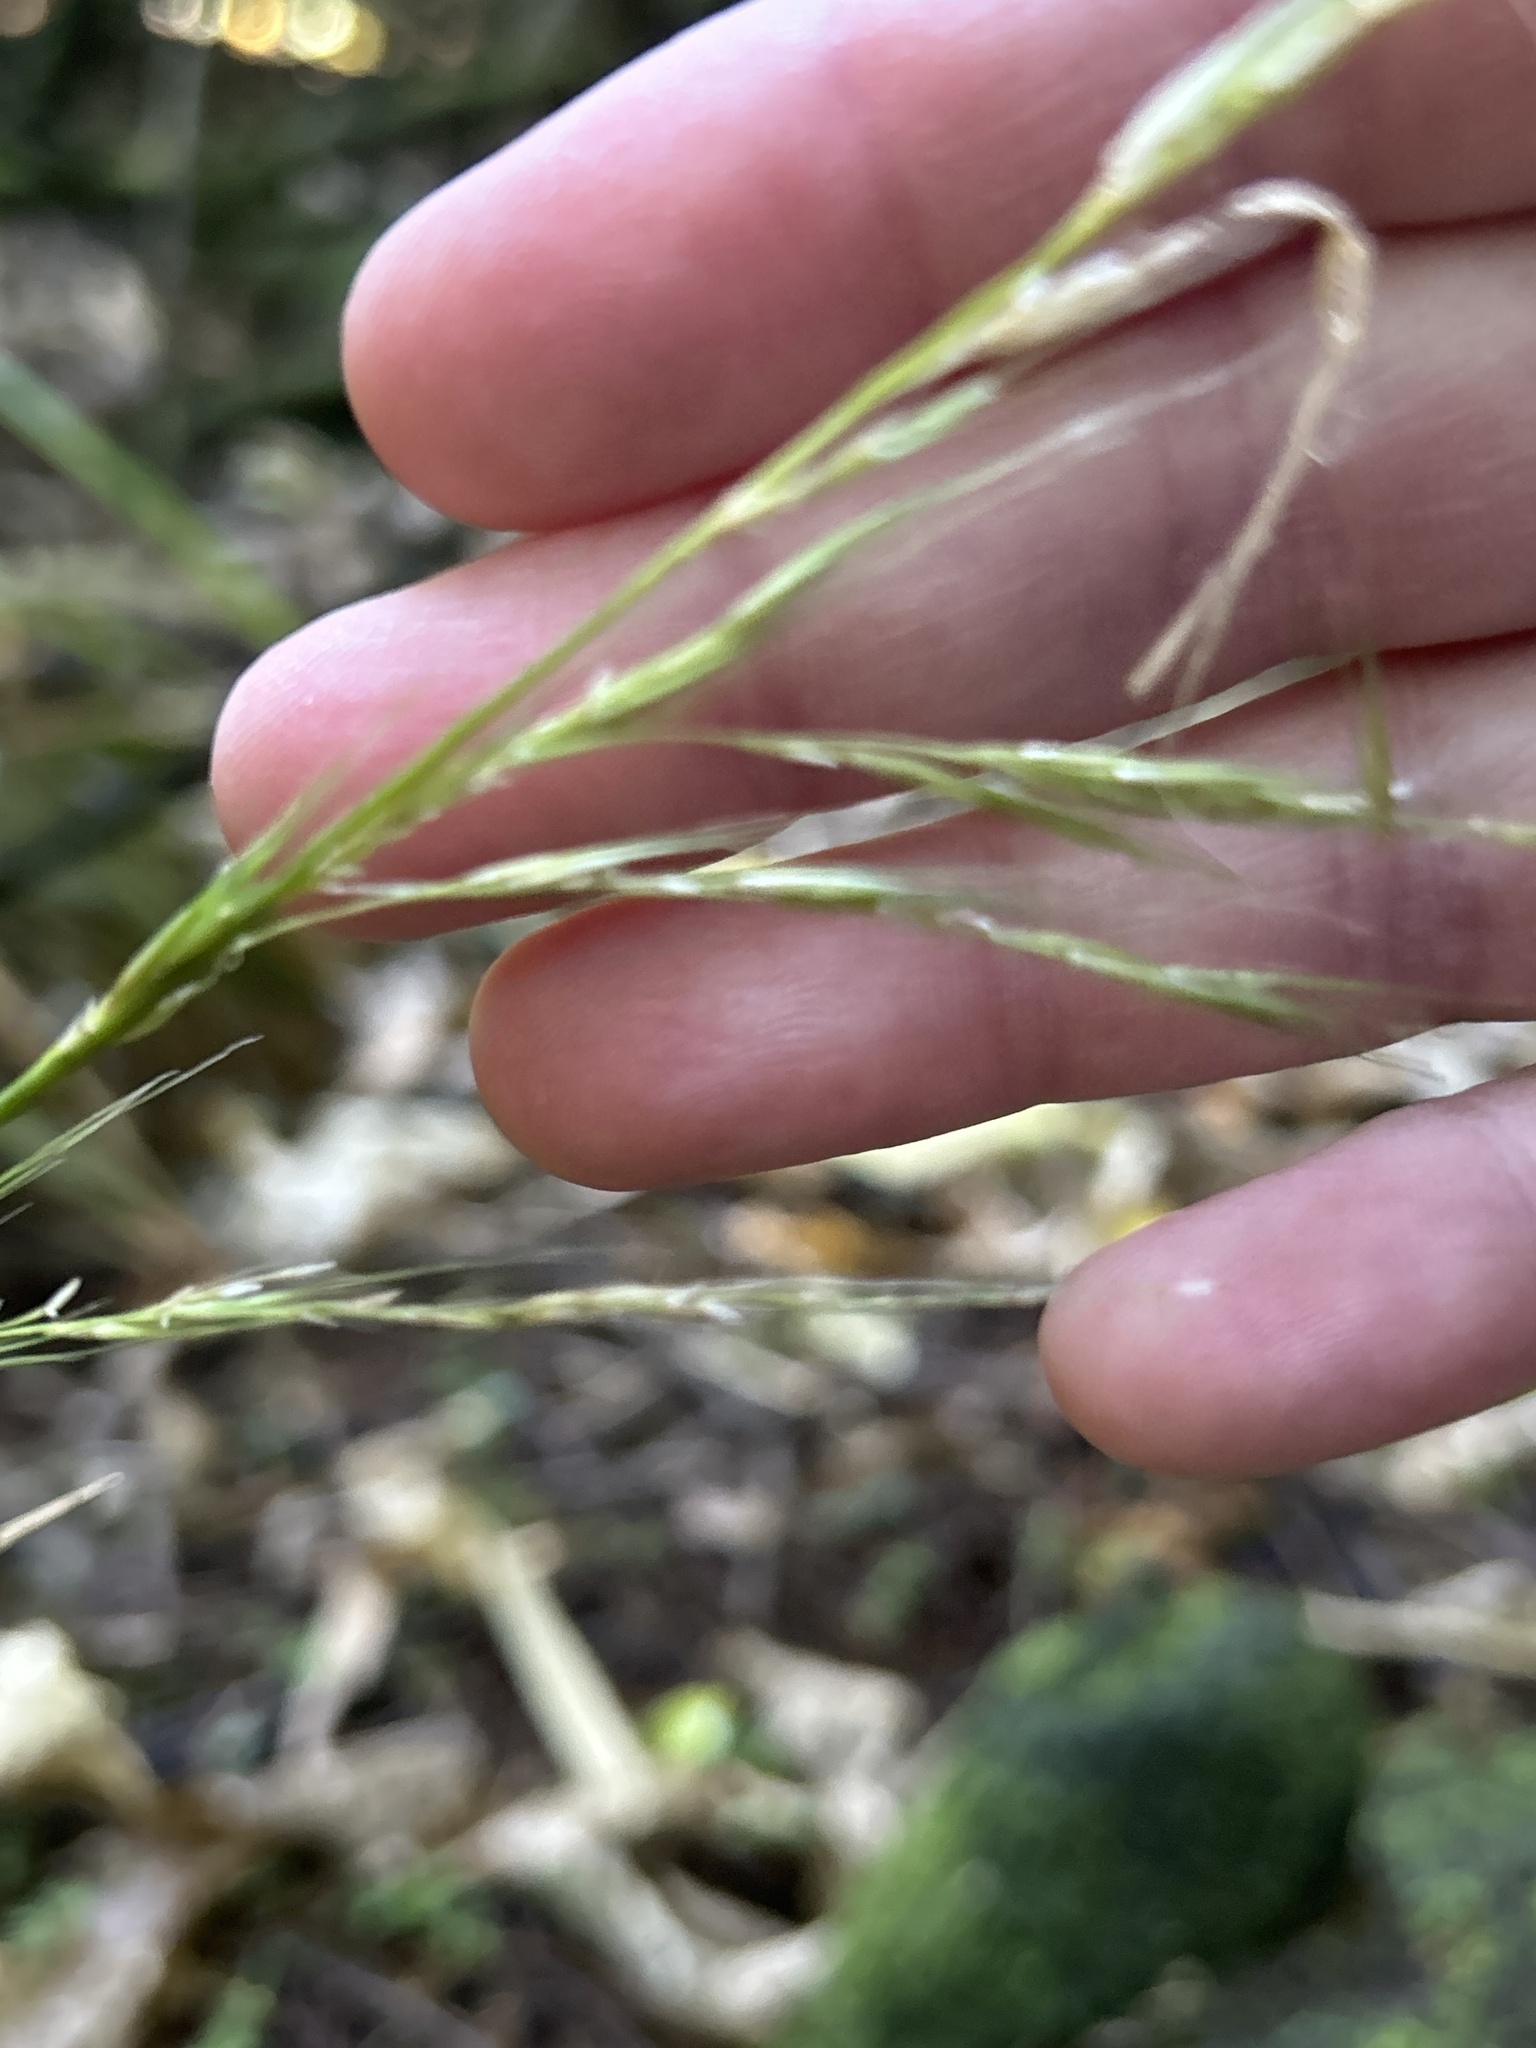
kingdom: Plantae
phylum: Tracheophyta
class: Liliopsida
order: Poales
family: Poaceae
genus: Ehrharta
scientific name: Ehrharta diplax
